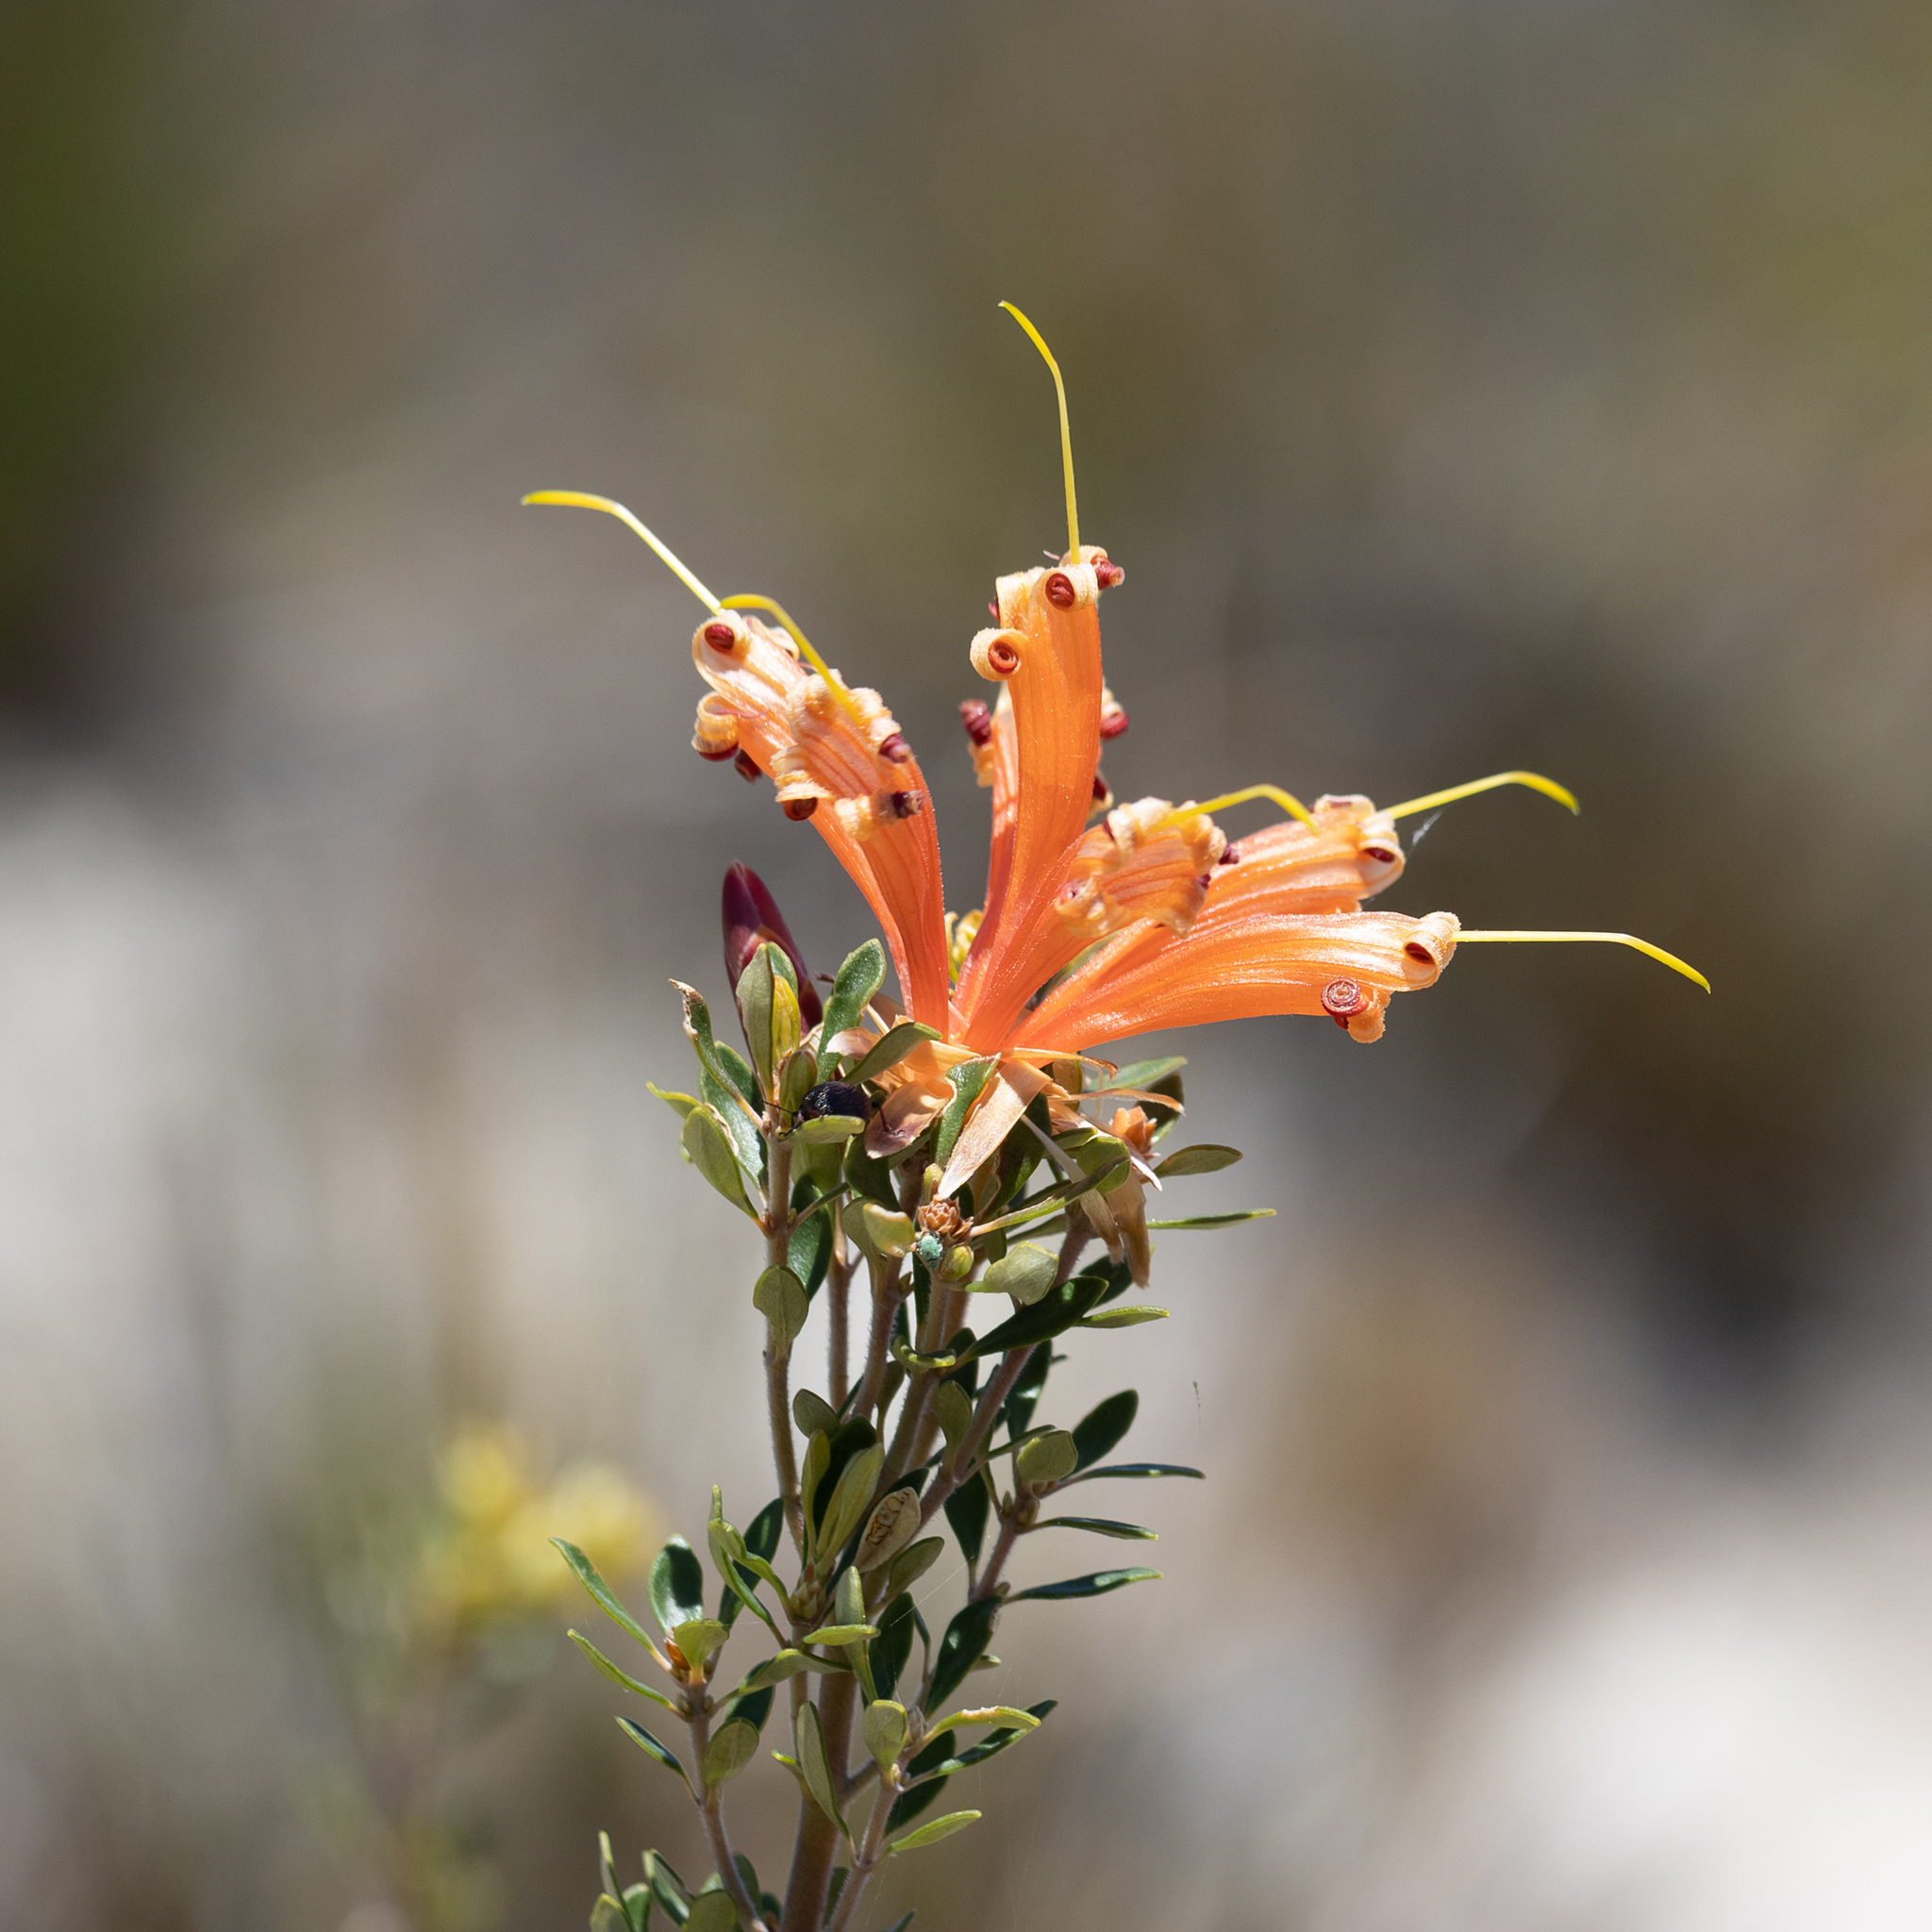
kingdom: Plantae
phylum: Tracheophyta
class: Magnoliopsida
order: Proteales
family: Proteaceae
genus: Lambertia
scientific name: Lambertia inermis
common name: Chittick
